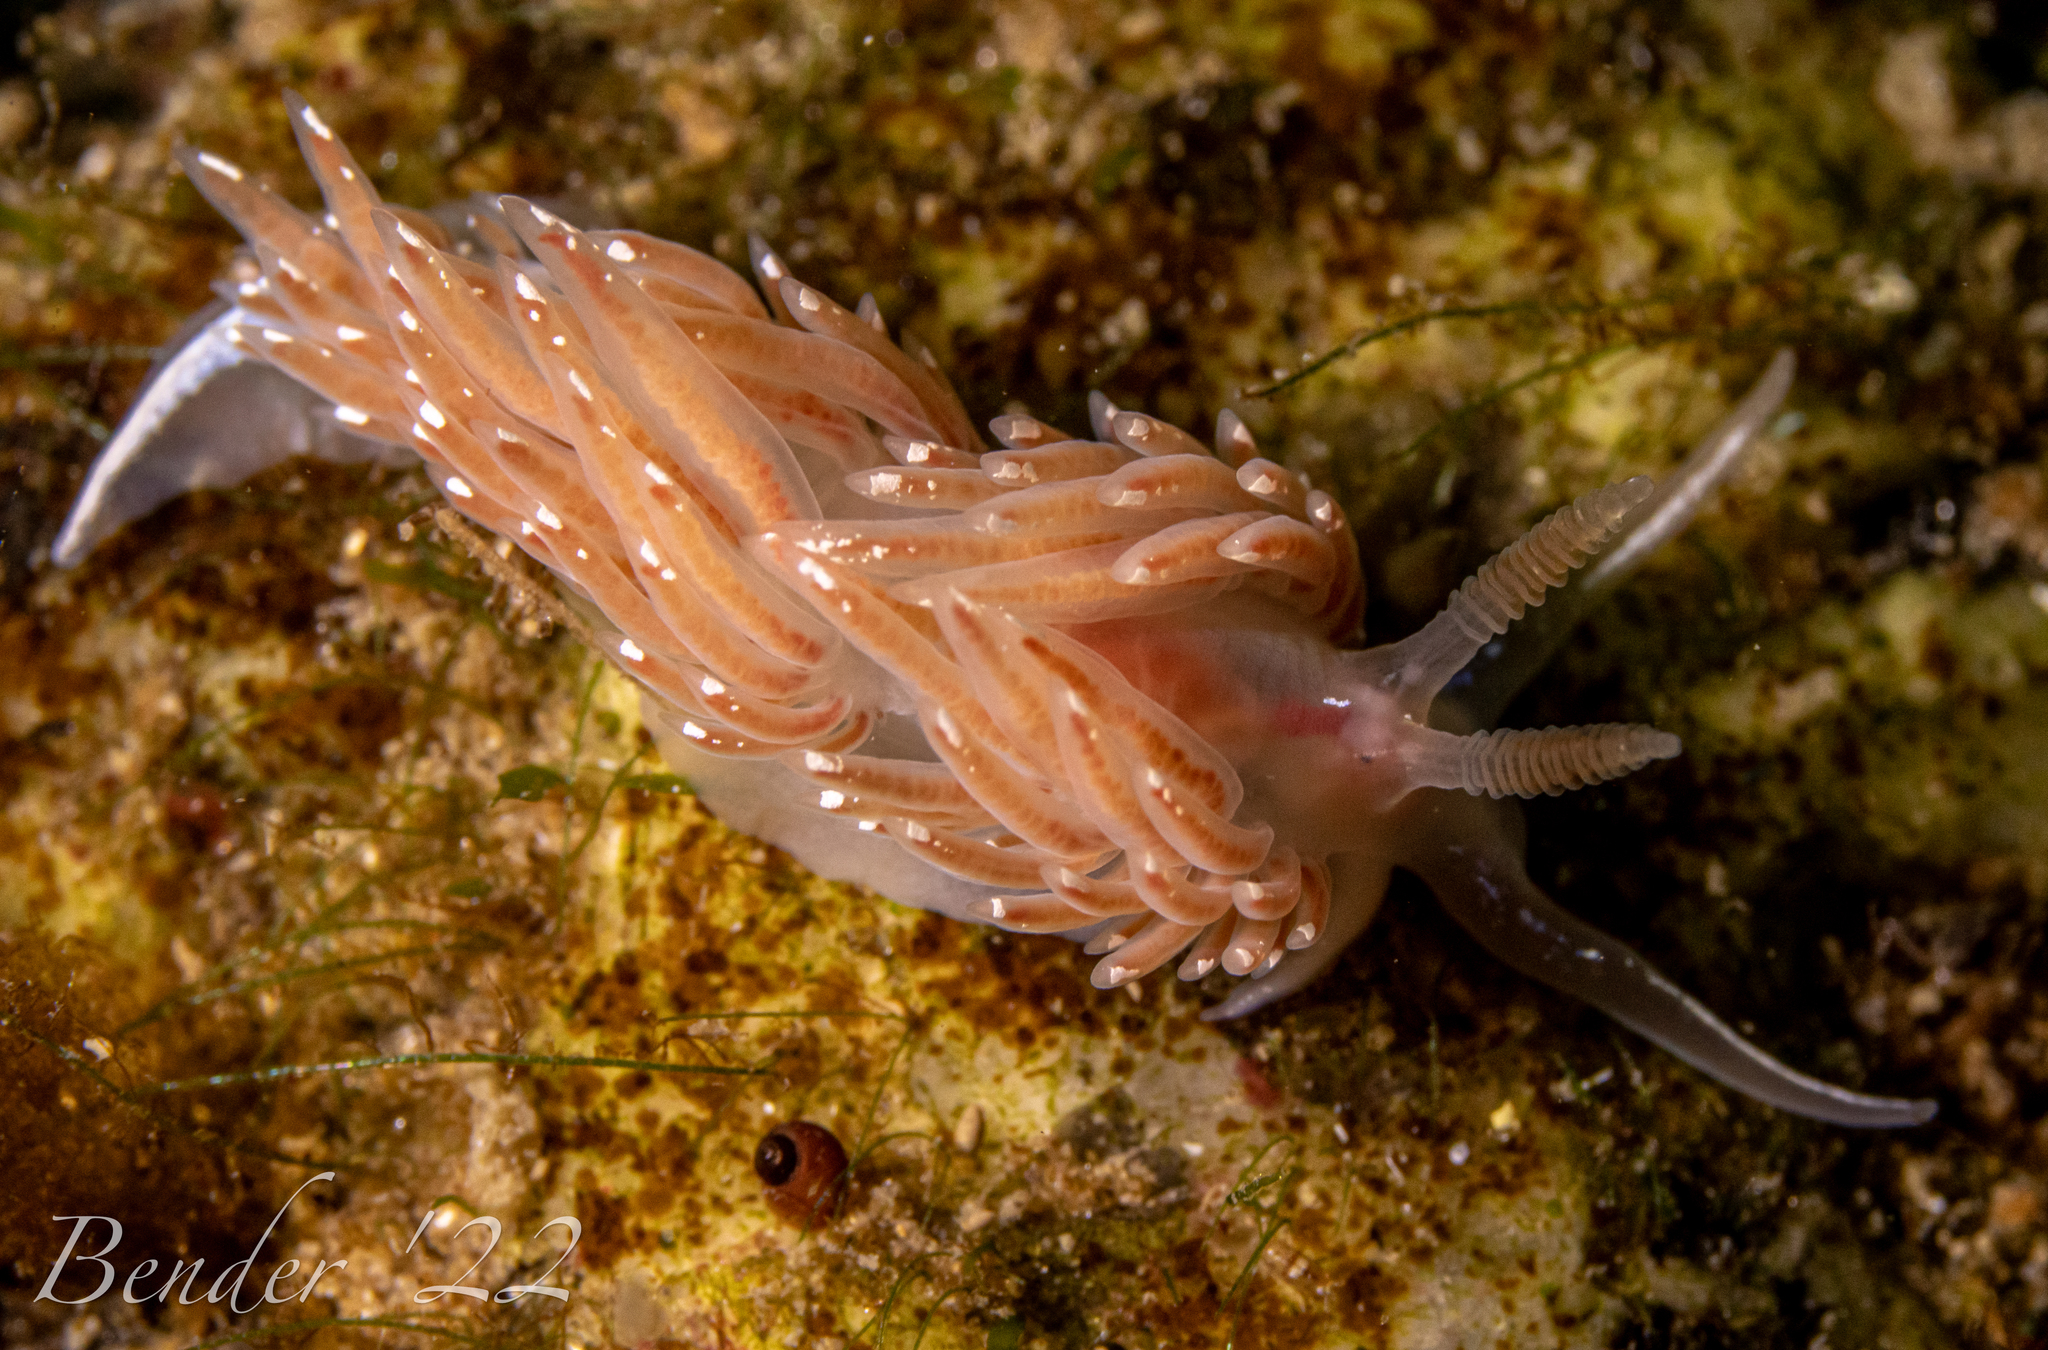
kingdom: Animalia
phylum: Mollusca
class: Gastropoda
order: Nudibranchia
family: Facelinidae
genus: Facelina
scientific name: Facelina bostoniensis
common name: Boston facelina
